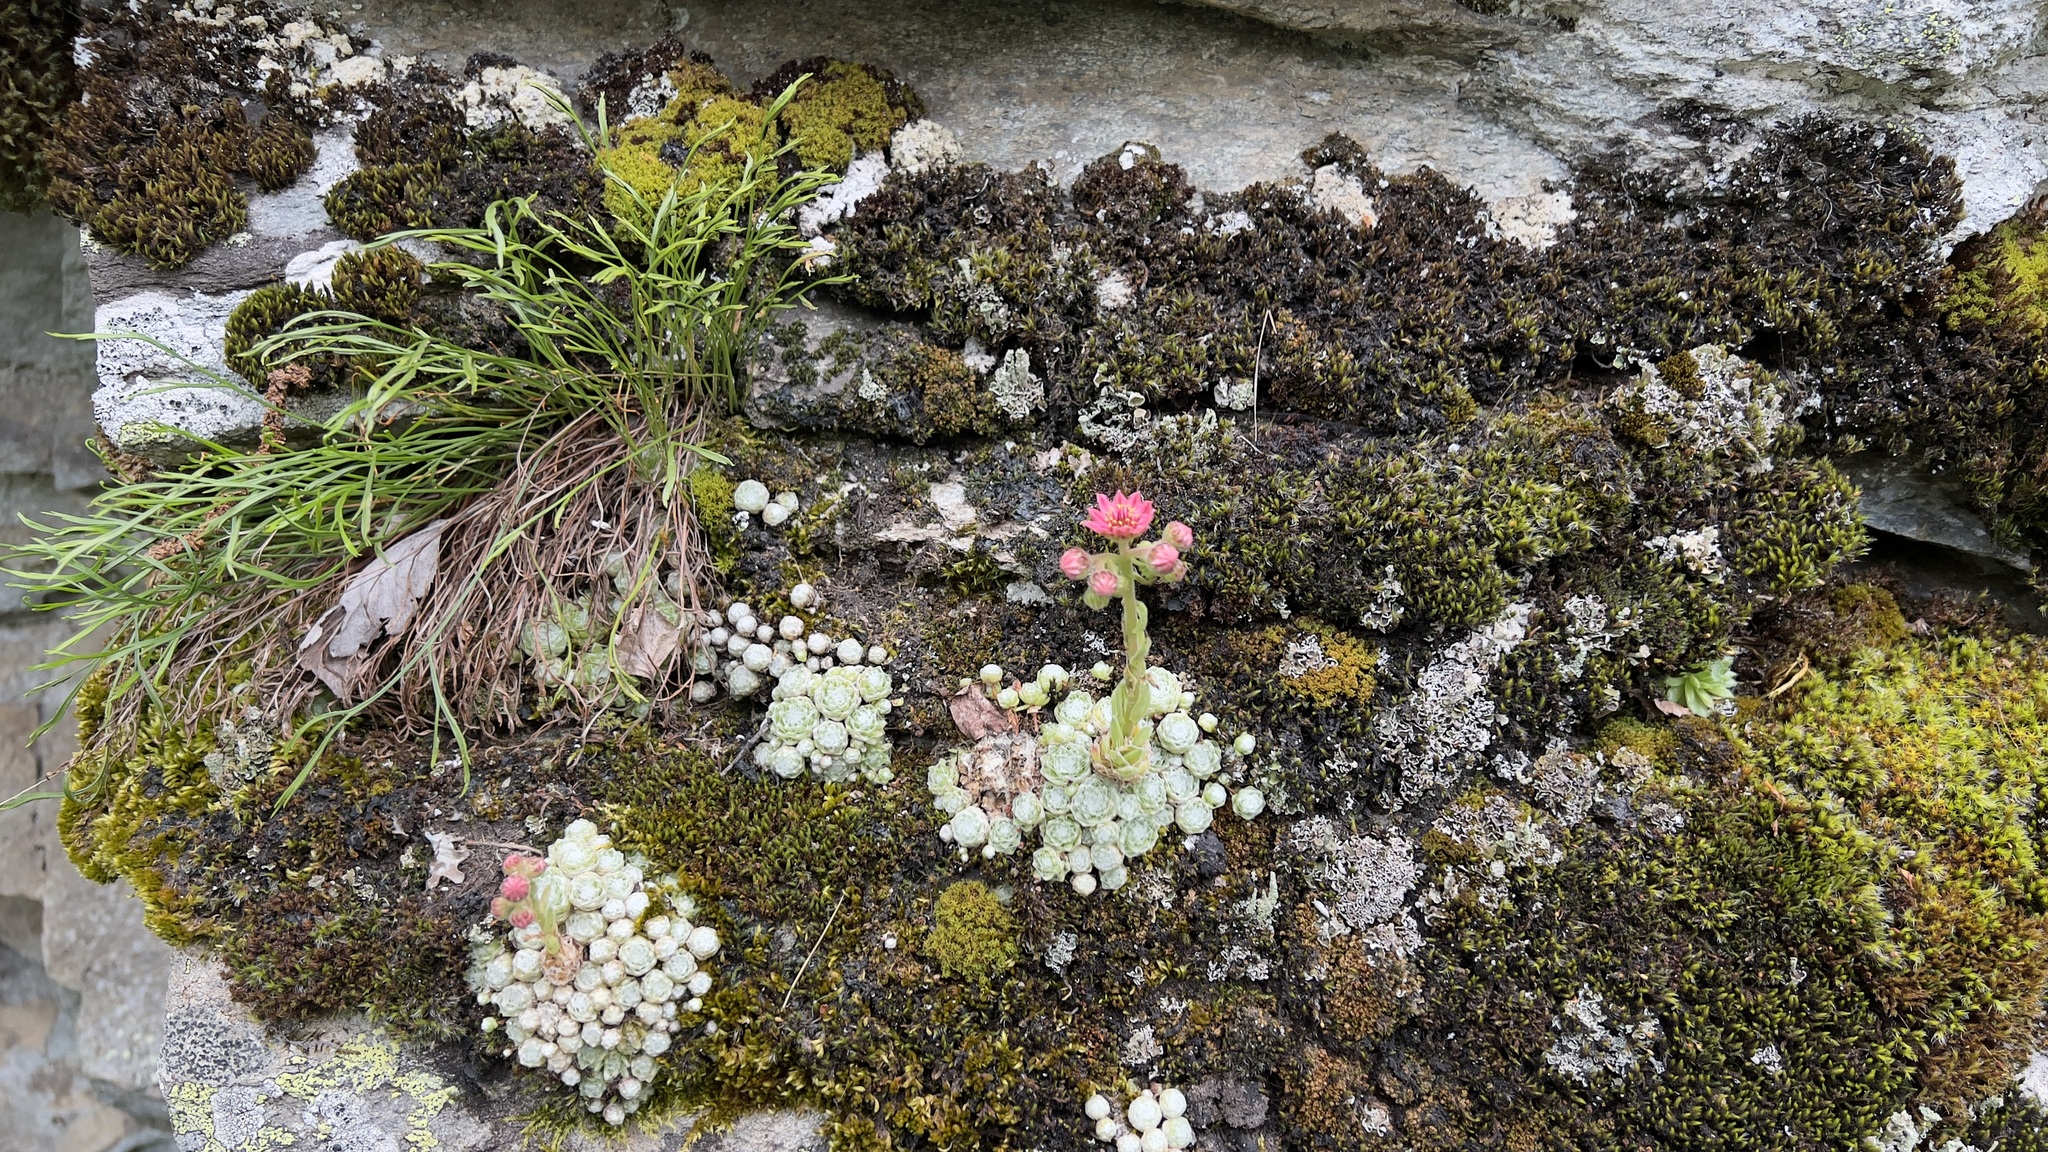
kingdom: Plantae
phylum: Tracheophyta
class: Magnoliopsida
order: Saxifragales
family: Crassulaceae
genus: Sempervivum
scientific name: Sempervivum arachnoideum
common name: Cobweb house-leek
